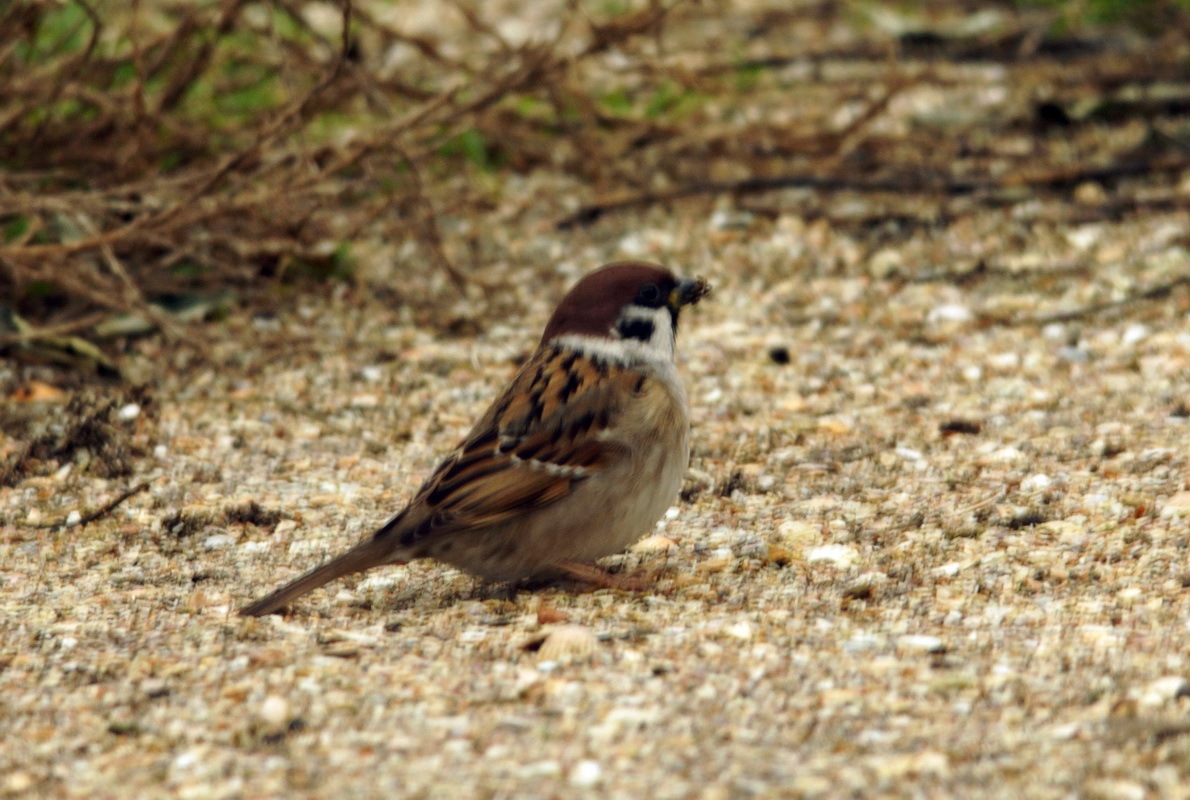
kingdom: Animalia
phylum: Chordata
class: Aves
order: Passeriformes
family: Passeridae
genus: Passer
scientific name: Passer montanus
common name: Eurasian tree sparrow
